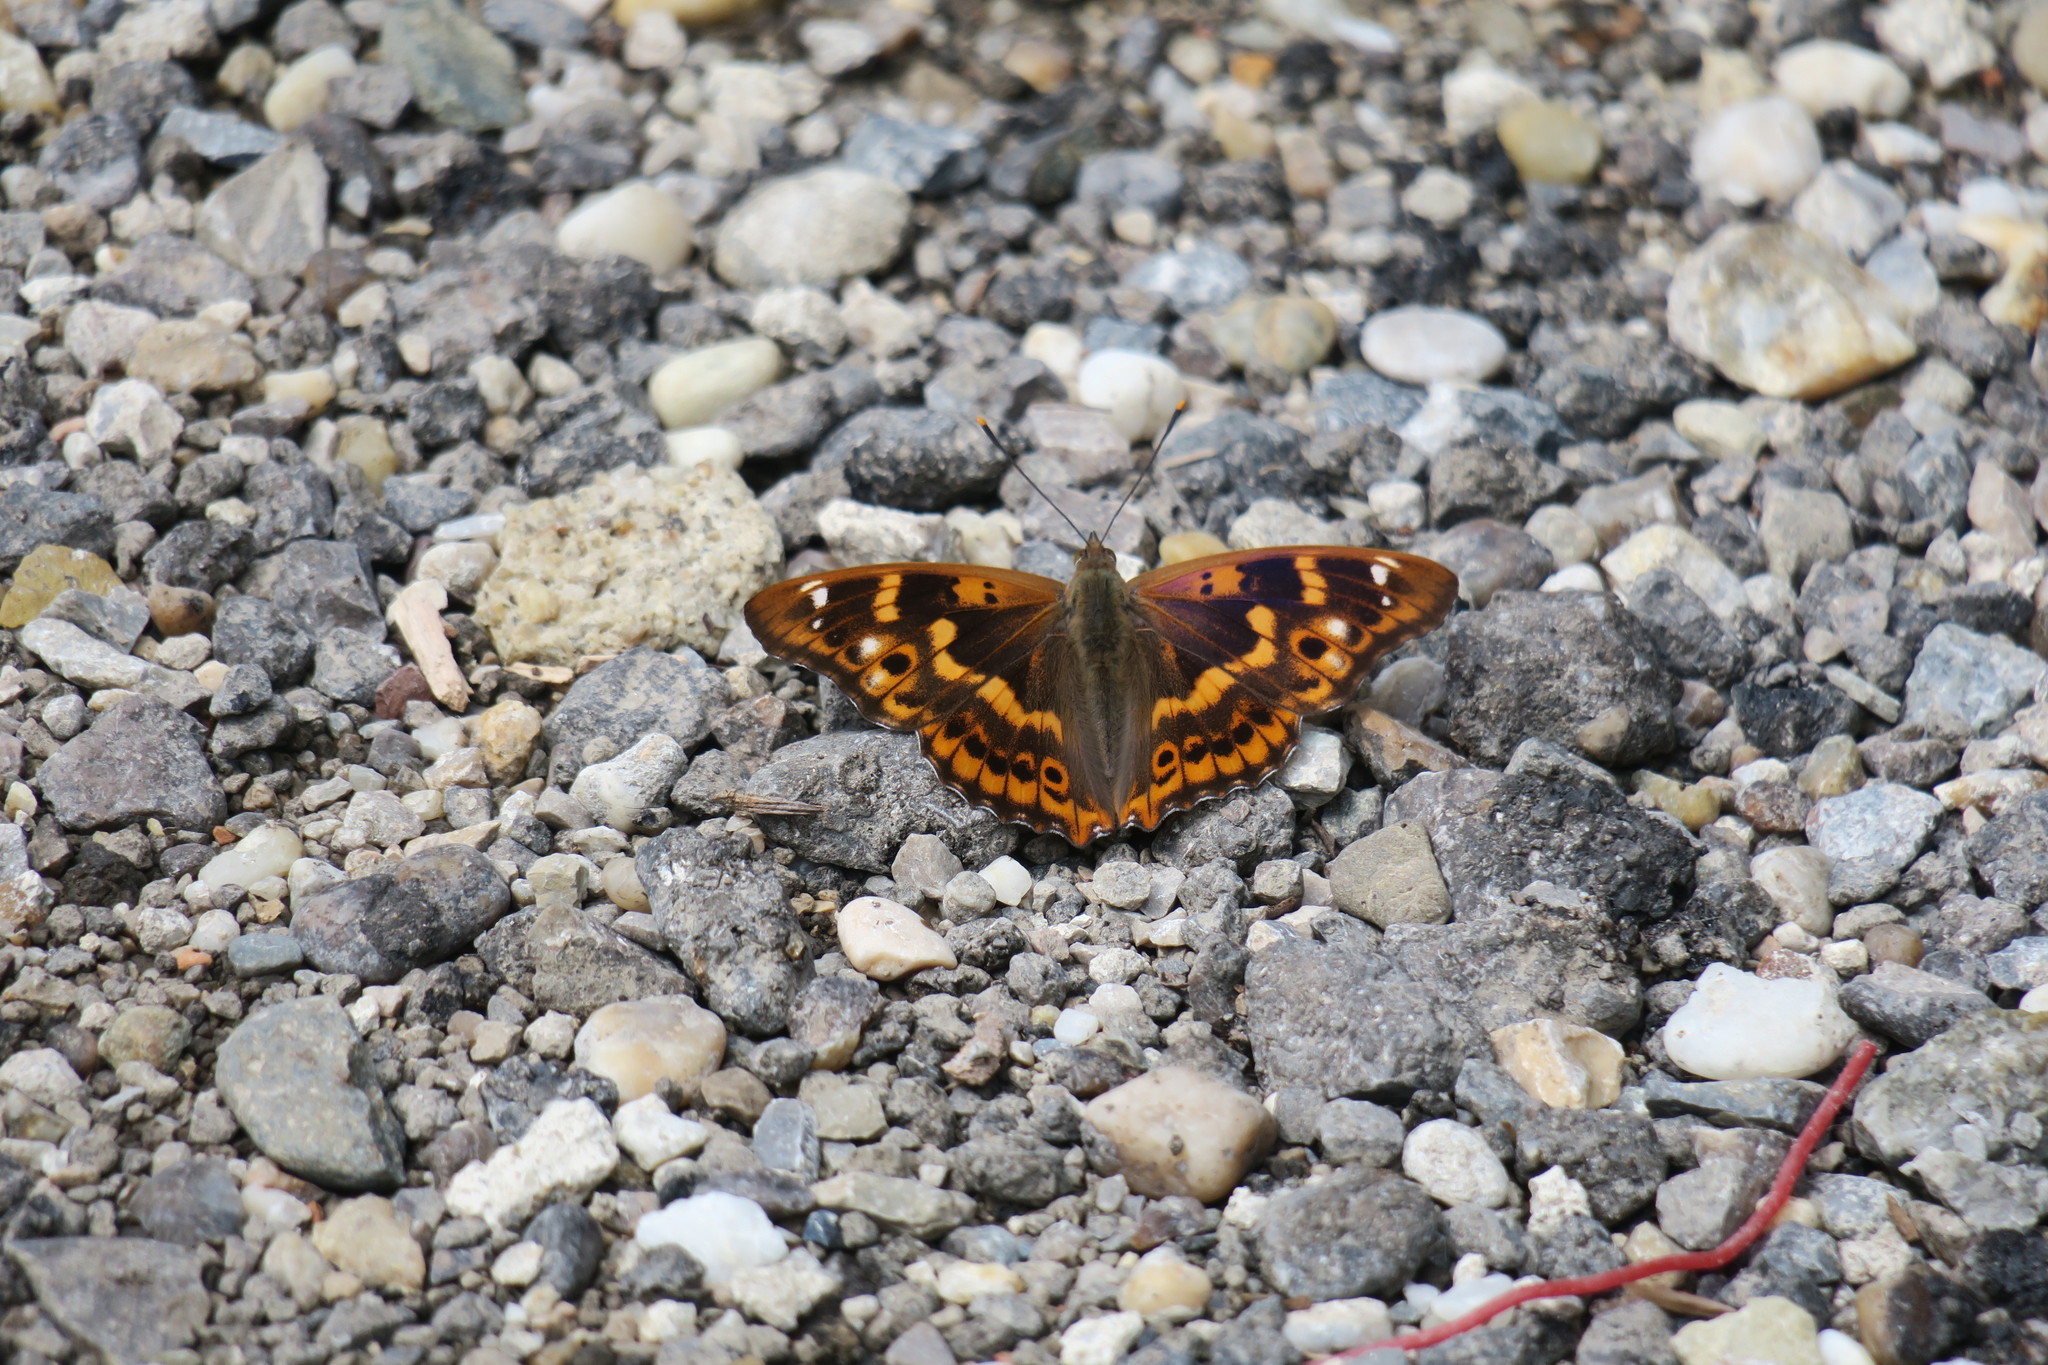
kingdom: Animalia
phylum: Arthropoda
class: Insecta
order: Lepidoptera
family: Nymphalidae
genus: Apatura
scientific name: Apatura ilia
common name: Lesser purple emperor
